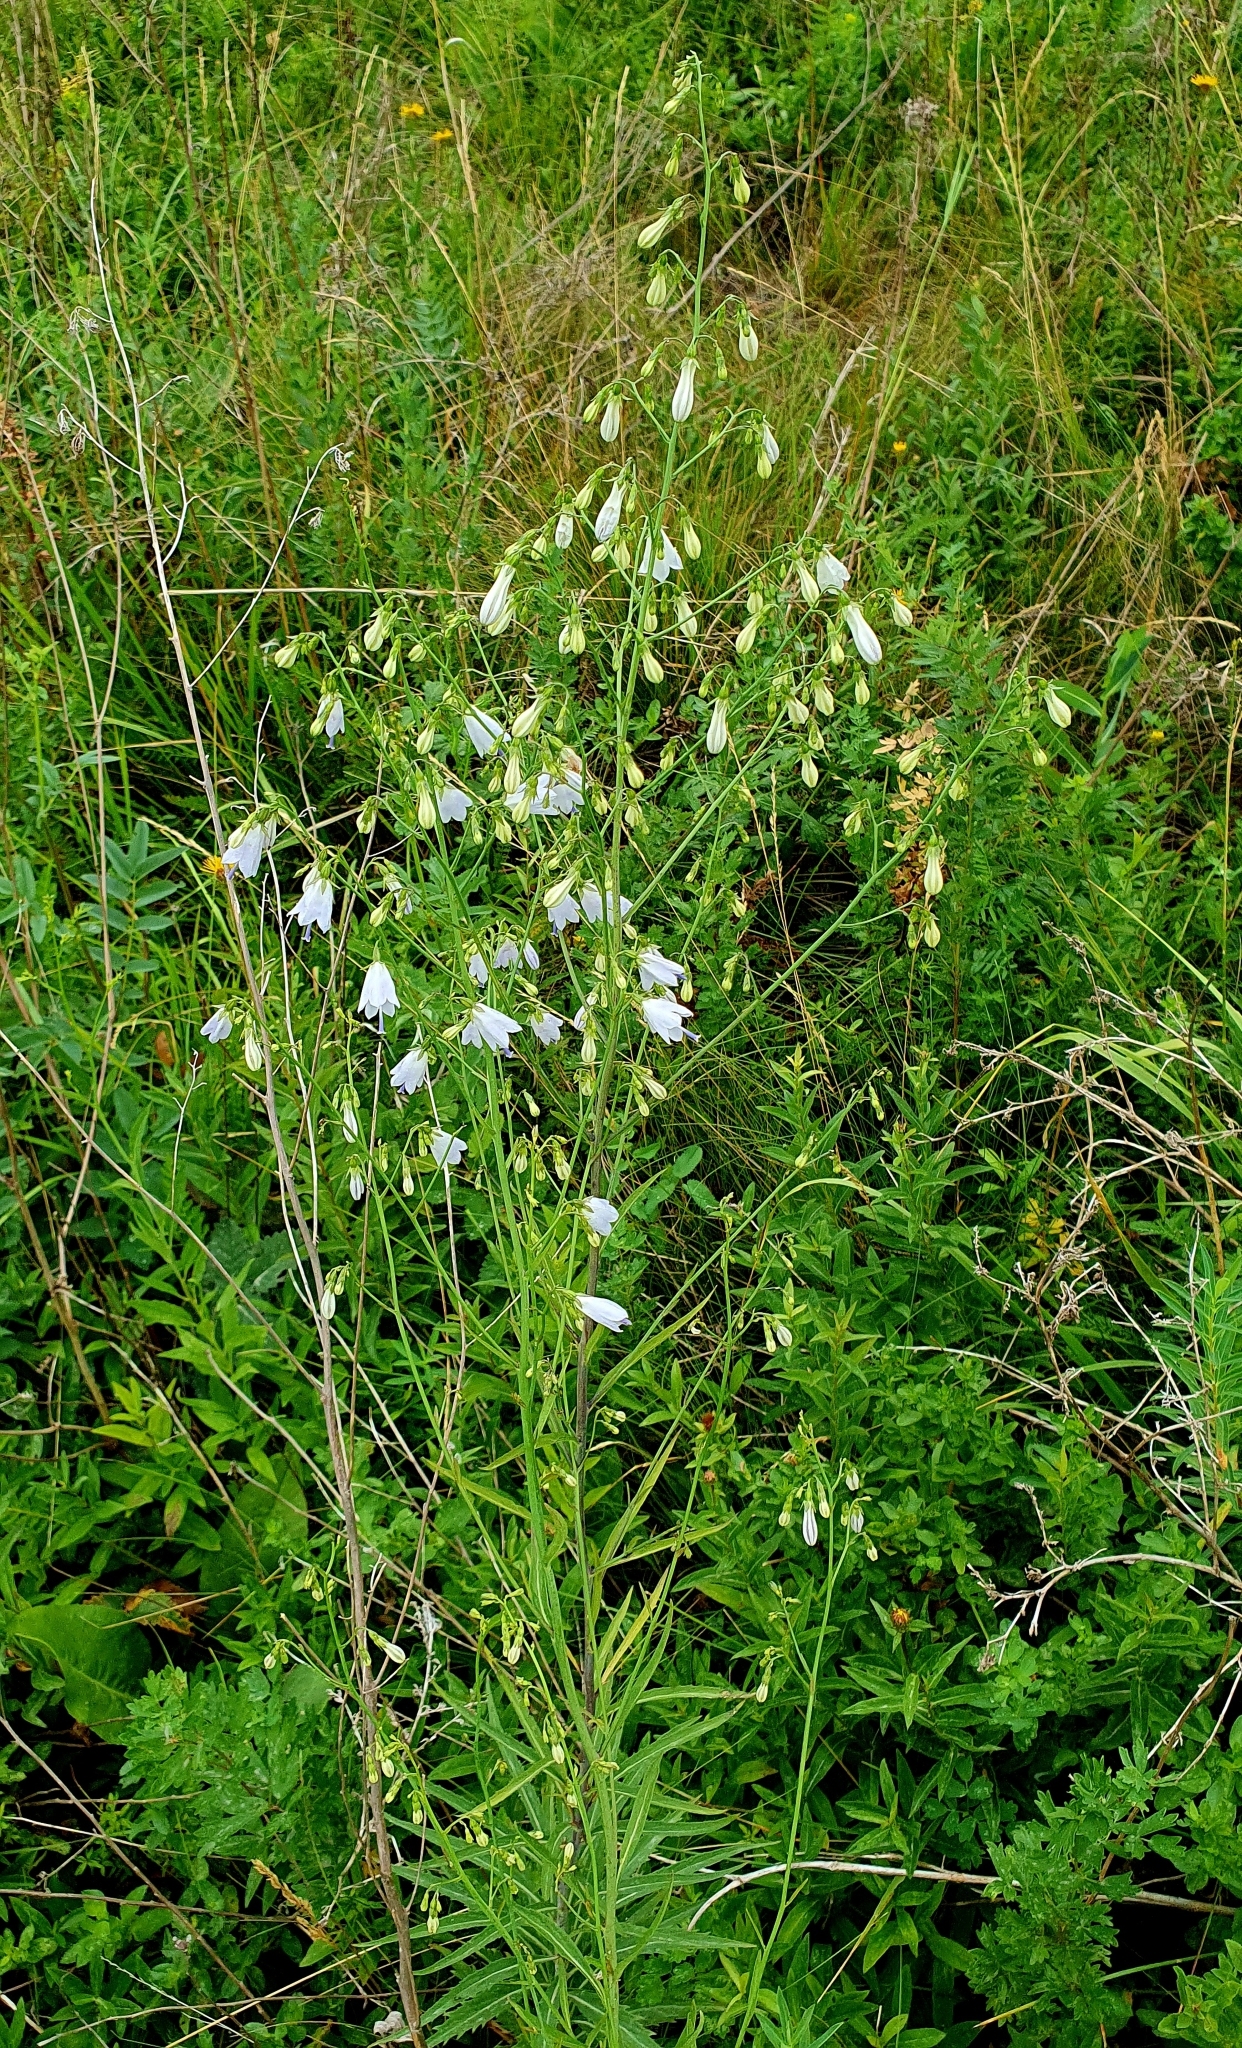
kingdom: Plantae
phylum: Tracheophyta
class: Magnoliopsida
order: Asterales
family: Campanulaceae
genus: Adenophora
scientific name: Adenophora liliifolia
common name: Lilyleaf ladybells
